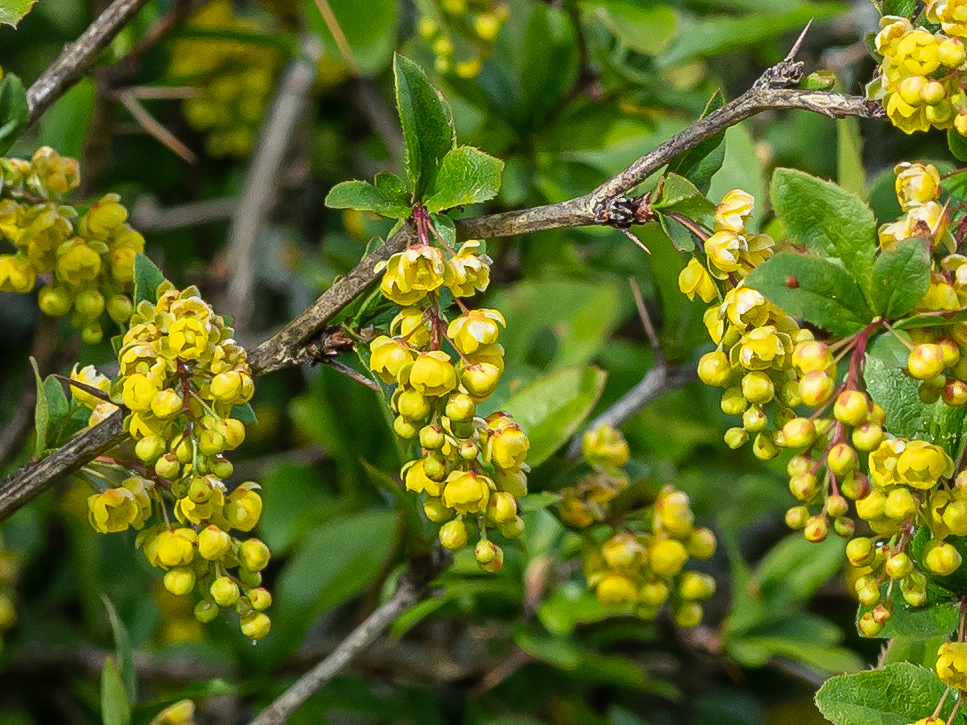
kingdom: Plantae
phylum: Tracheophyta
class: Magnoliopsida
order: Ranunculales
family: Berberidaceae
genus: Berberis
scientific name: Berberis vulgaris
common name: Barberry
